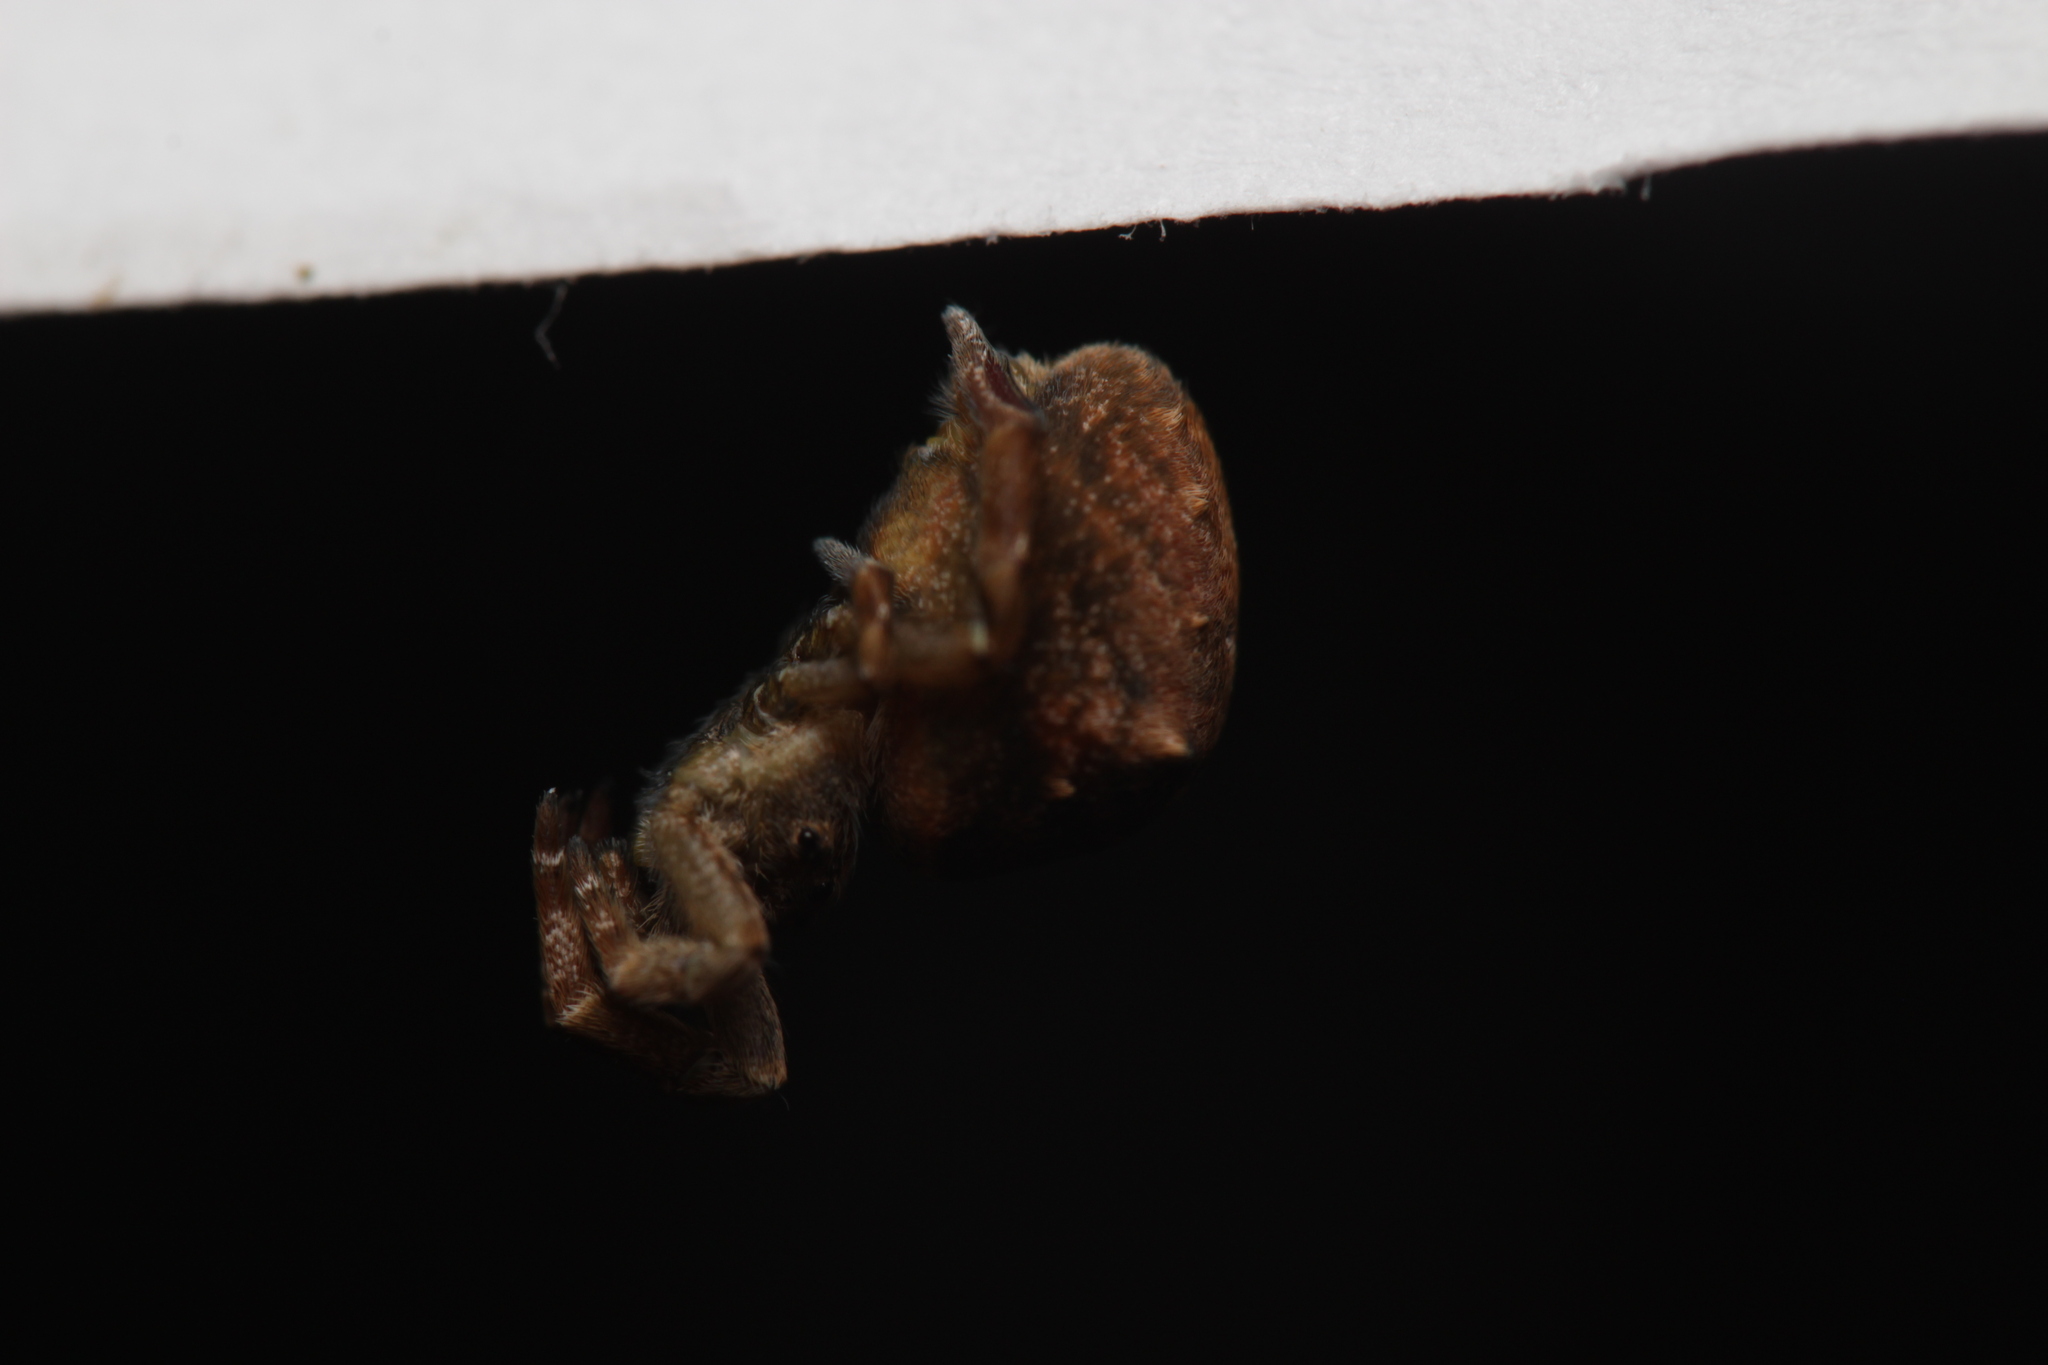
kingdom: Animalia
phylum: Arthropoda
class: Arachnida
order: Araneae
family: Uloboridae
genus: Hyptiotes
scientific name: Hyptiotes paradoxus
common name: Triangle spider
